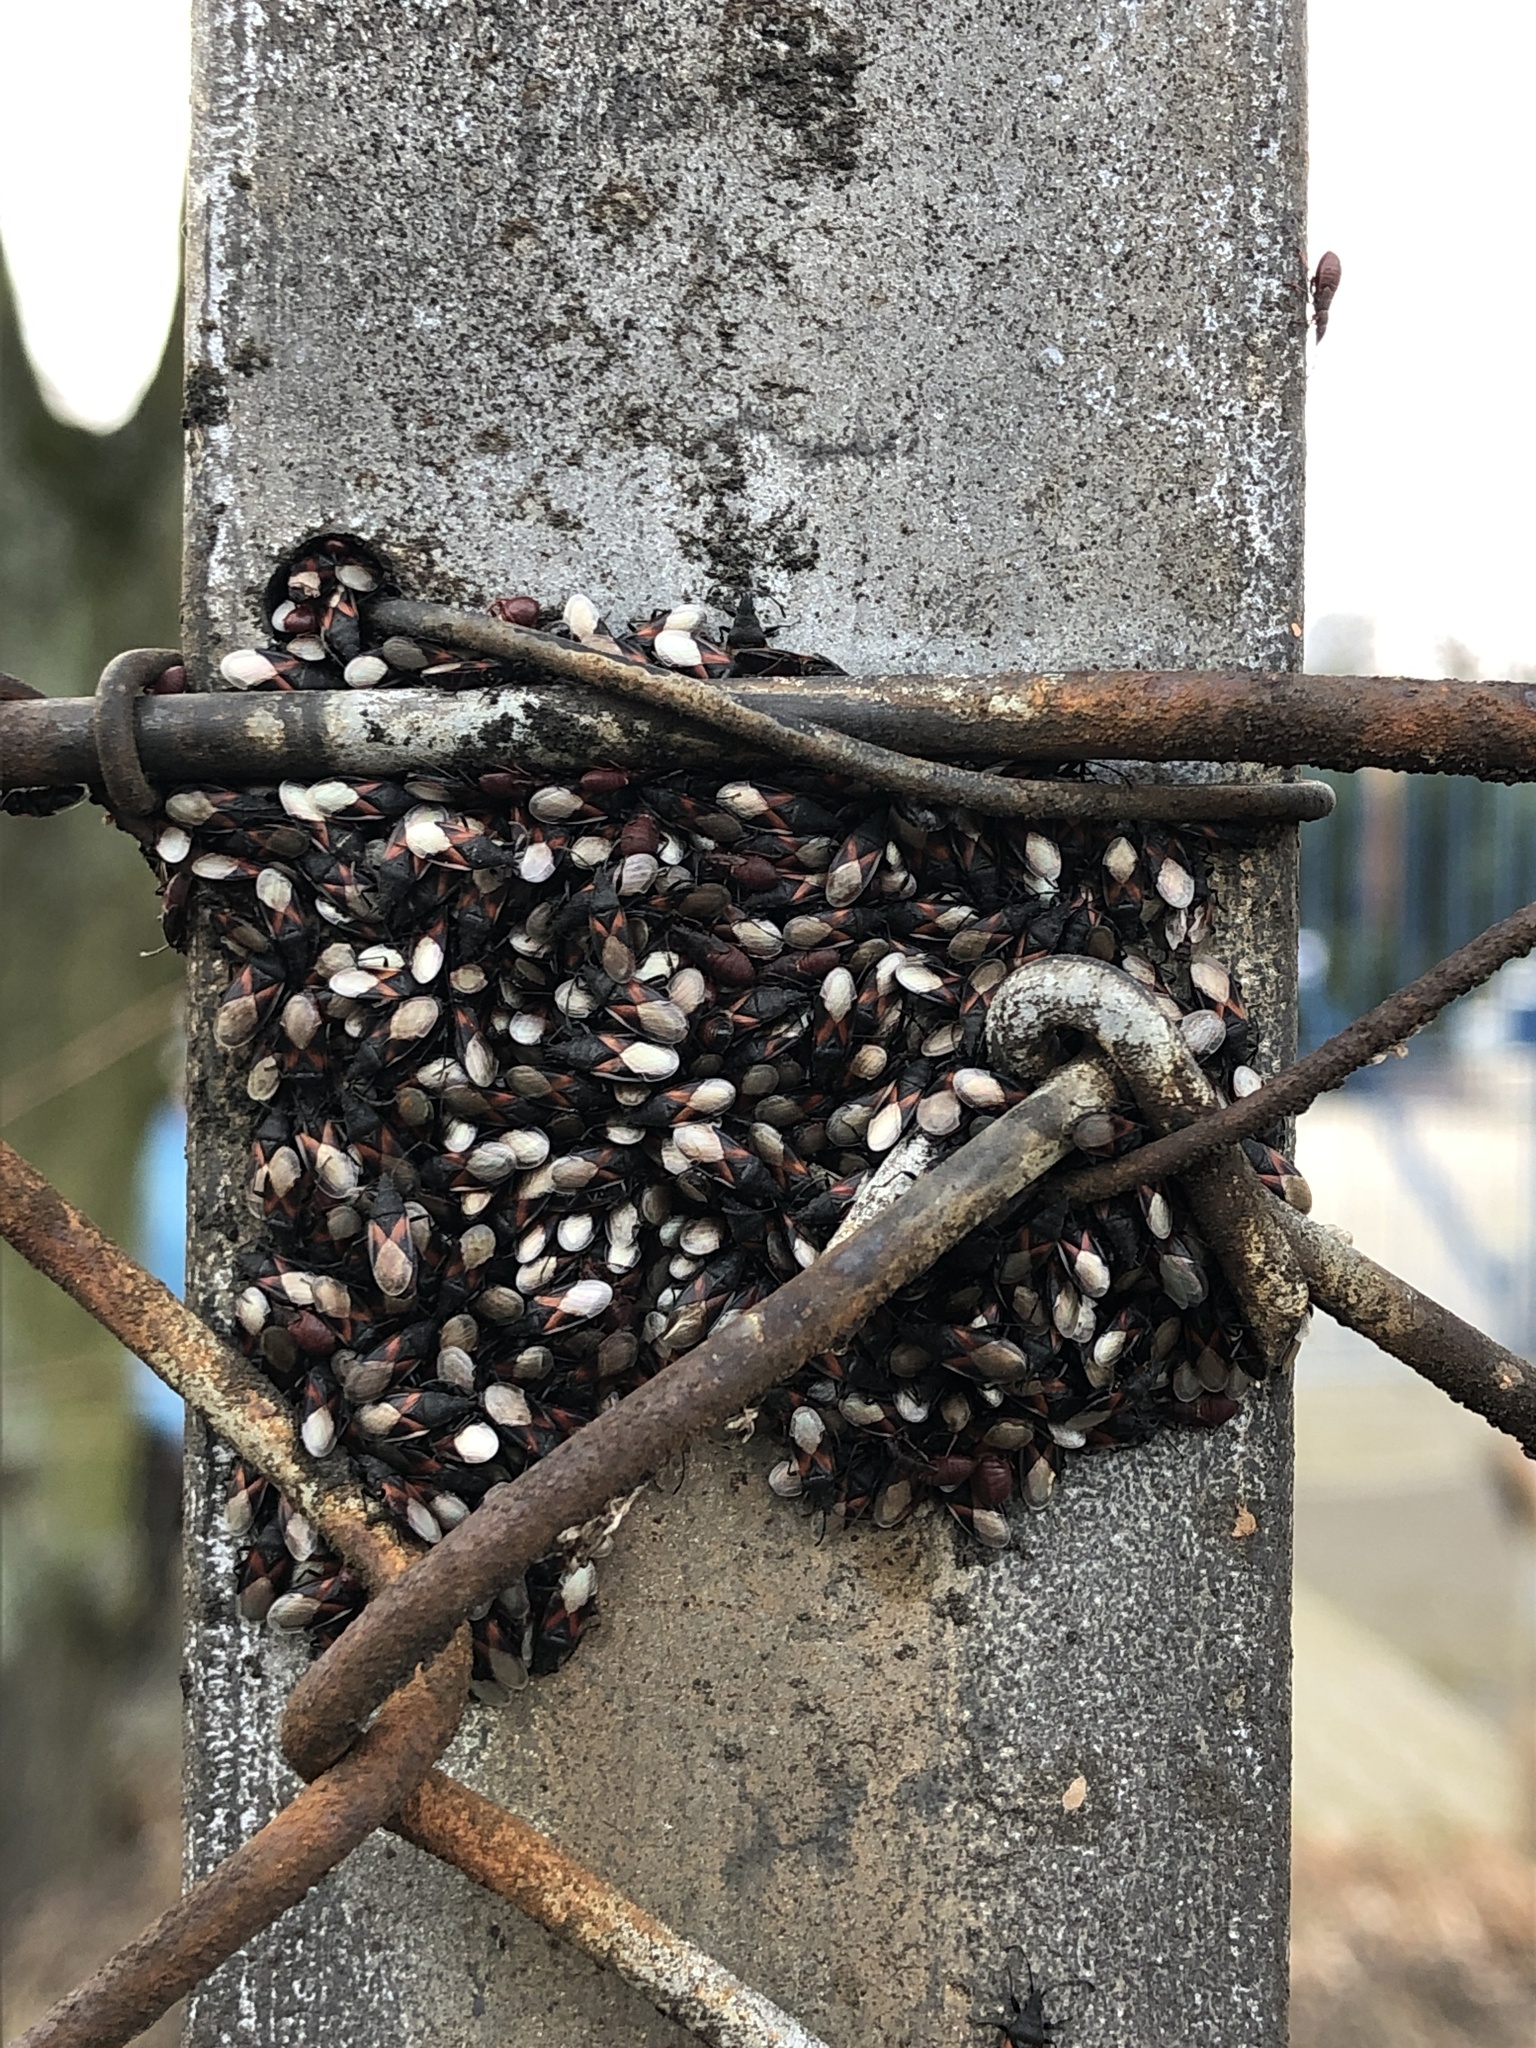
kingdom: Animalia
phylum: Arthropoda
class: Insecta
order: Hemiptera
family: Oxycarenidae
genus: Oxycarenus
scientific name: Oxycarenus lavaterae
